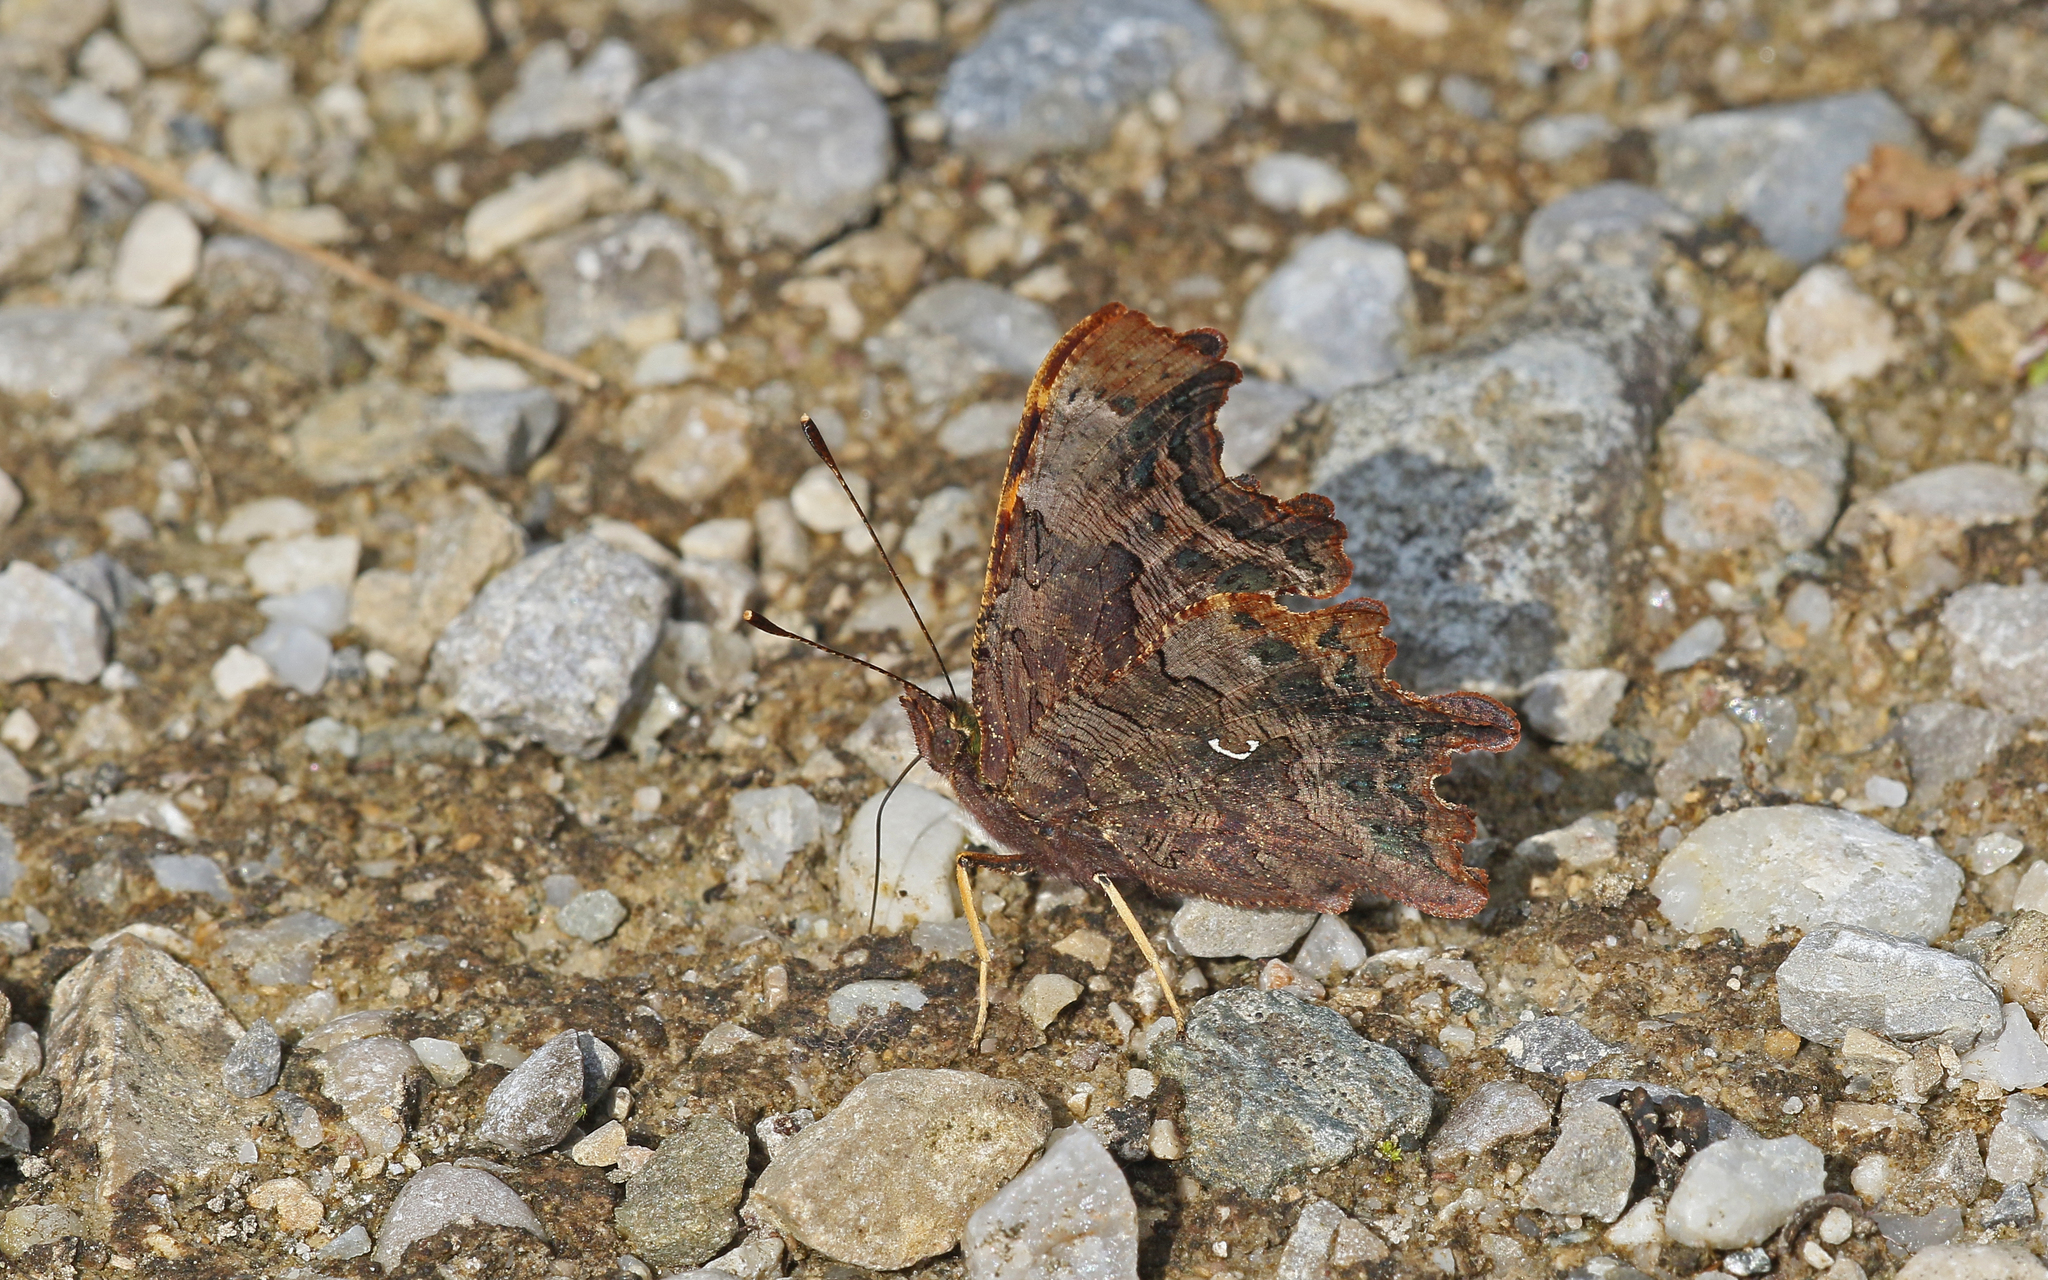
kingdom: Animalia
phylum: Arthropoda
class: Insecta
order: Lepidoptera
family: Nymphalidae
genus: Polygonia
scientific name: Polygonia c-album
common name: Comma
